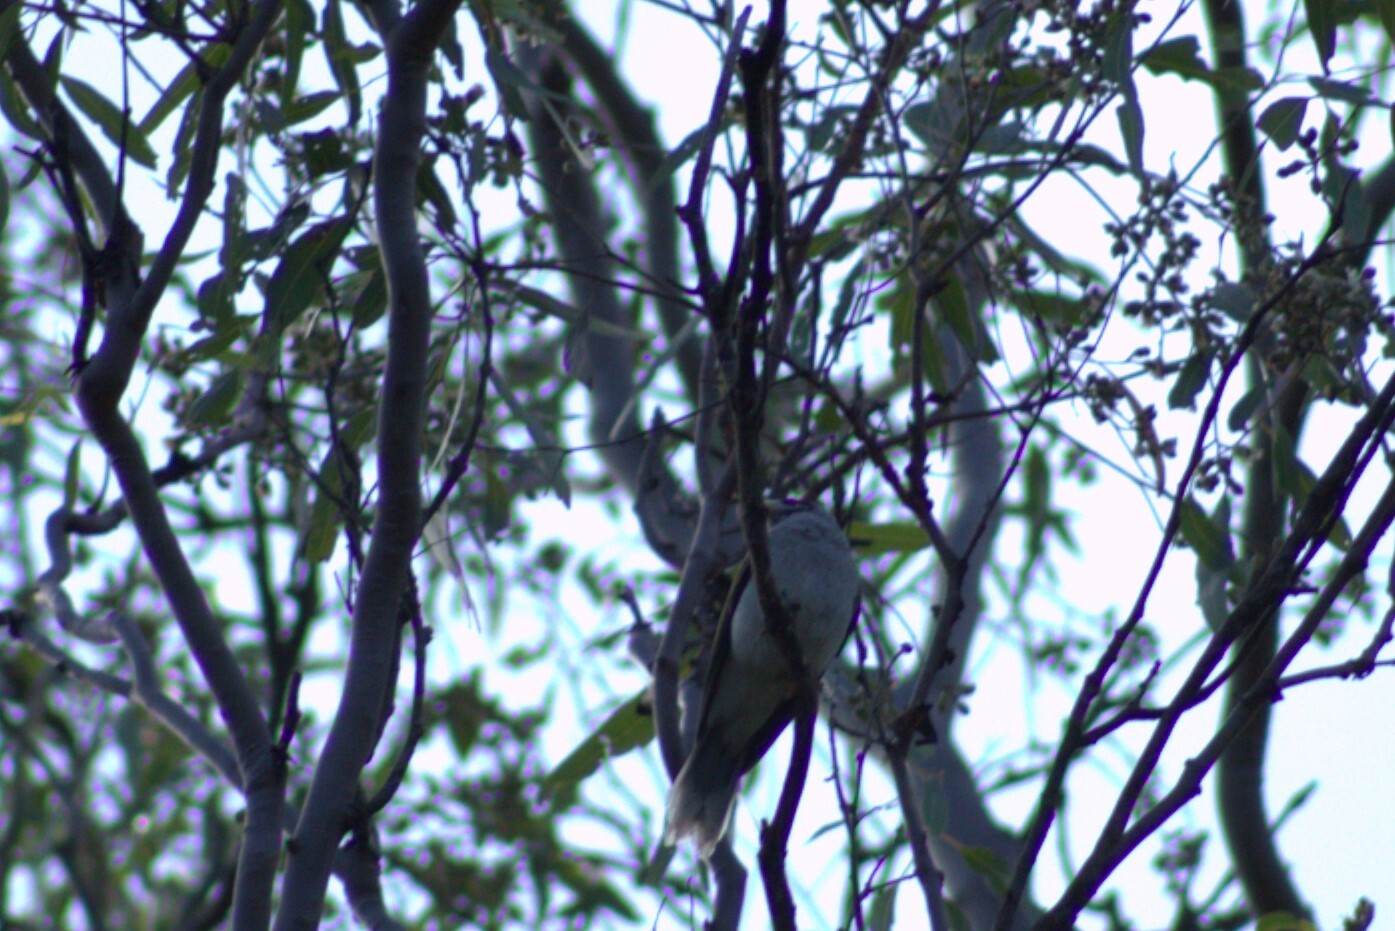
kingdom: Animalia
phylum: Chordata
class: Aves
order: Passeriformes
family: Meliphagidae
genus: Manorina
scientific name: Manorina melanocephala
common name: Noisy miner
